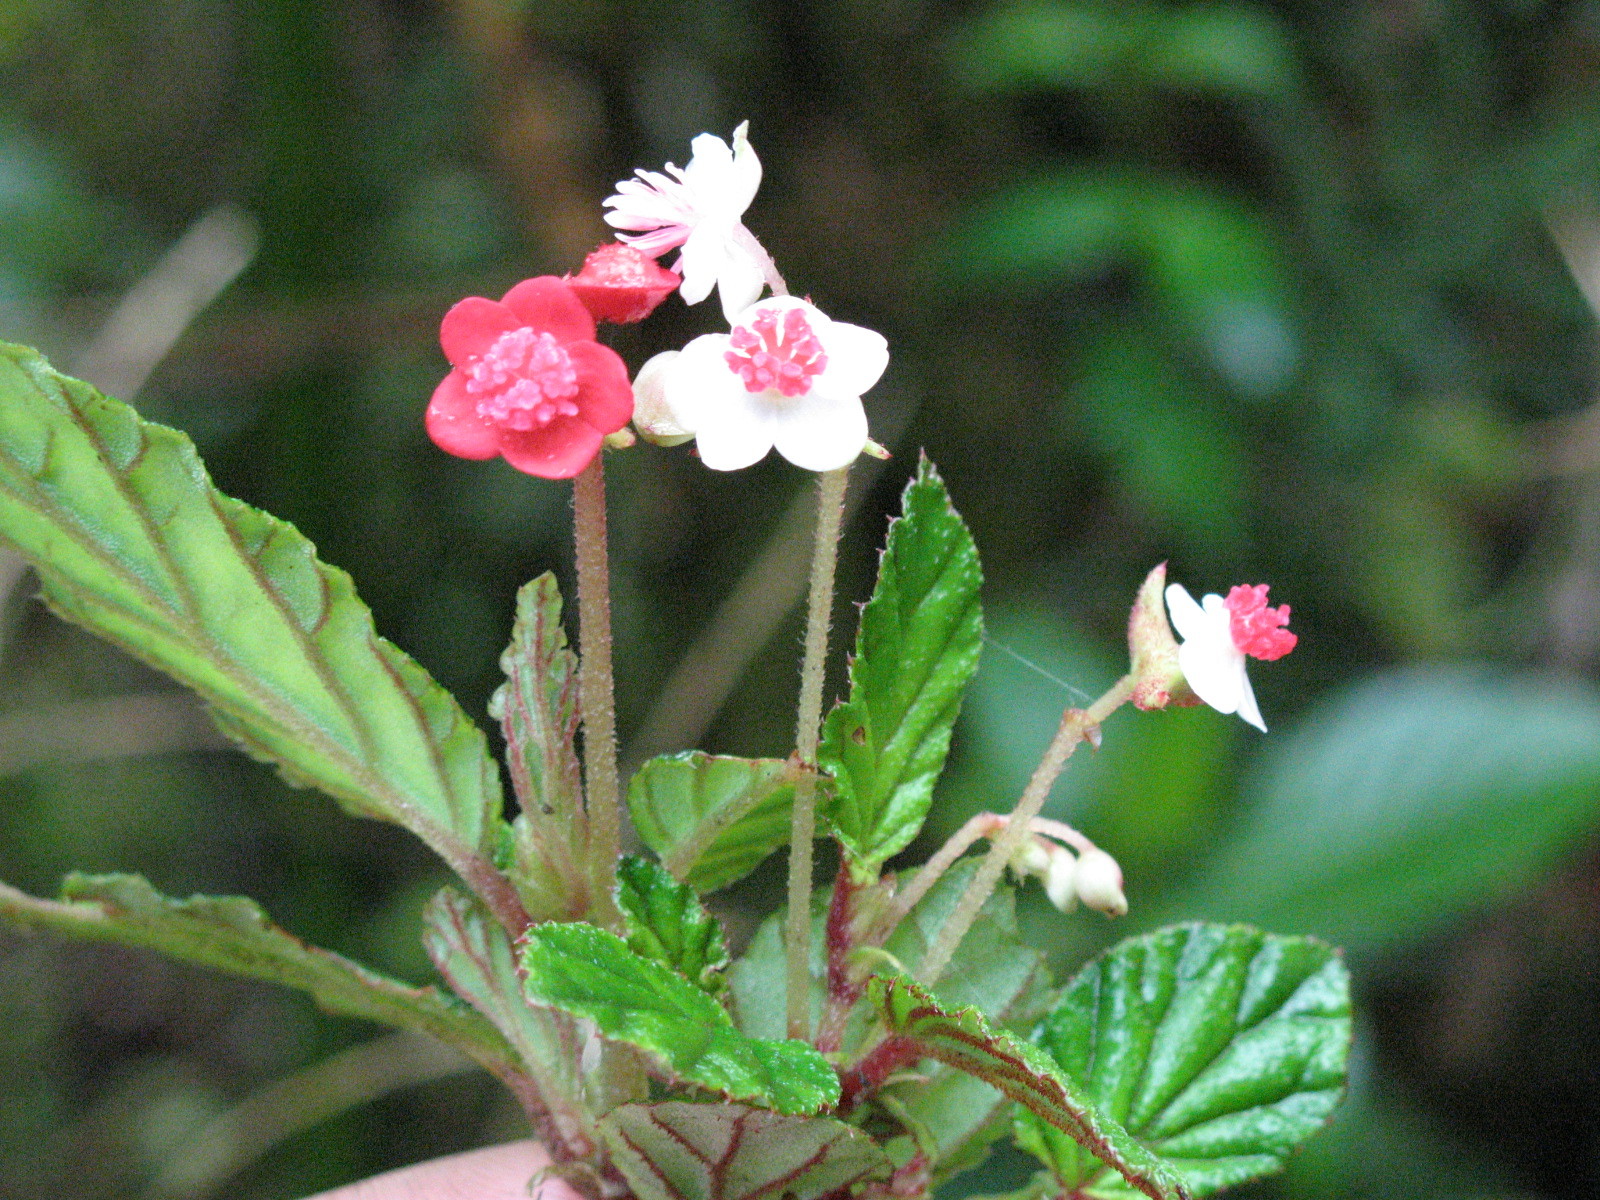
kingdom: Plantae
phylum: Tracheophyta
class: Magnoliopsida
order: Cucurbitales
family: Begoniaceae
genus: Begonia
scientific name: Begonia urticae
